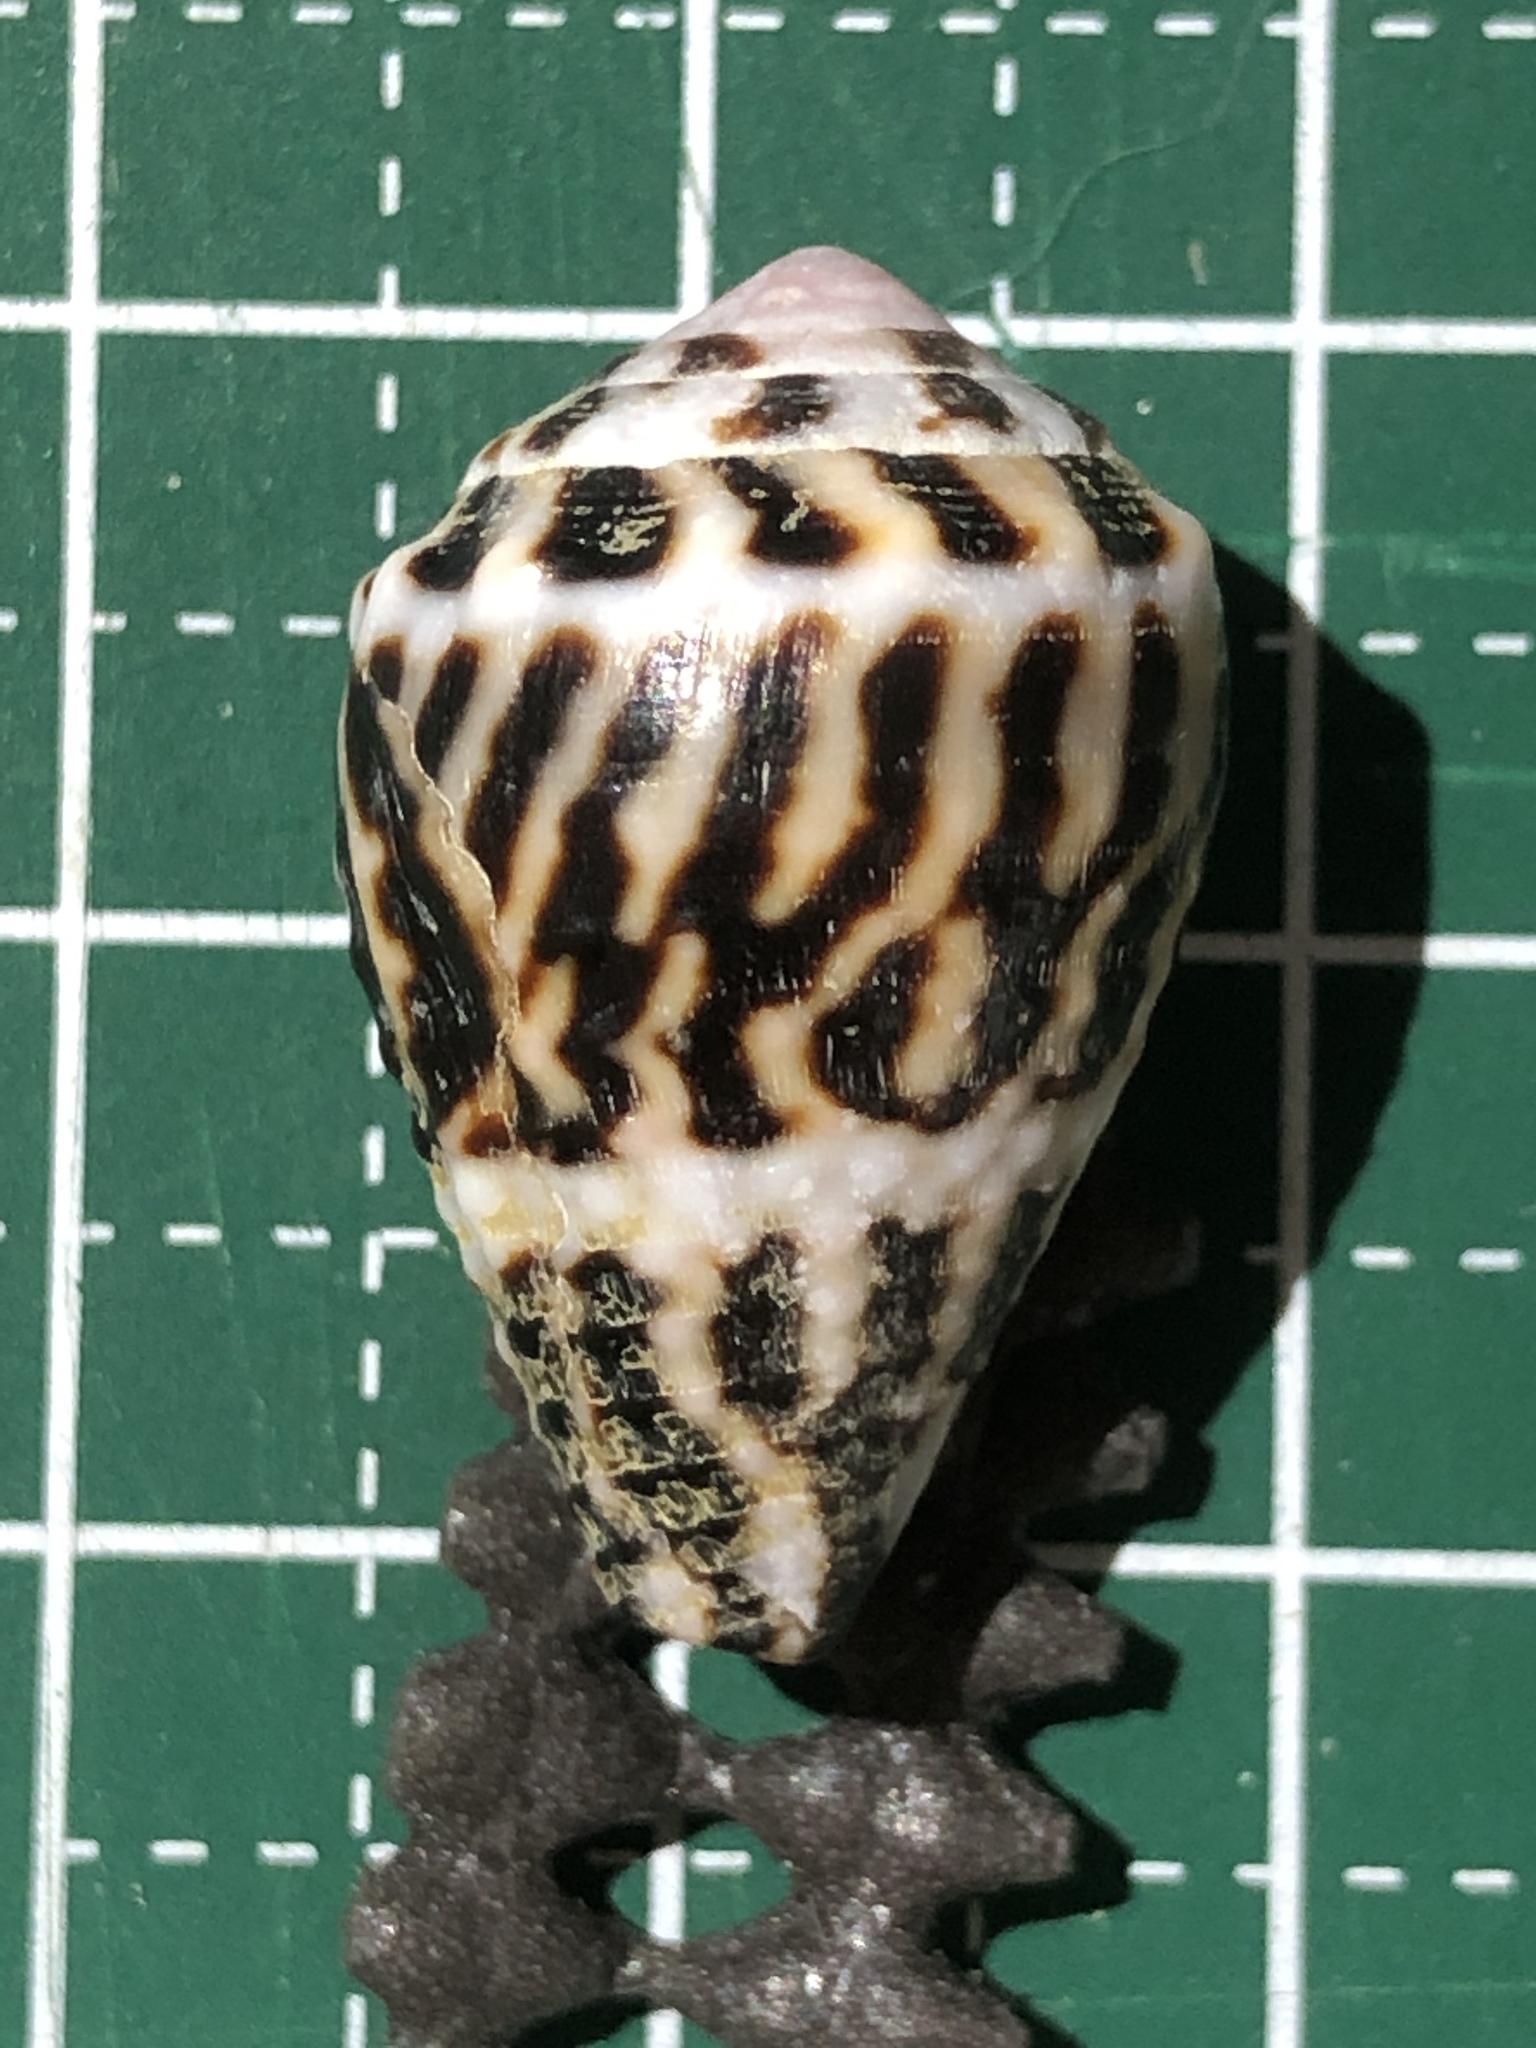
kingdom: Animalia
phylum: Mollusca
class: Gastropoda
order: Neogastropoda
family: Conidae
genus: Conus
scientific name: Conus chaldaeus
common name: Astrologer's cone
